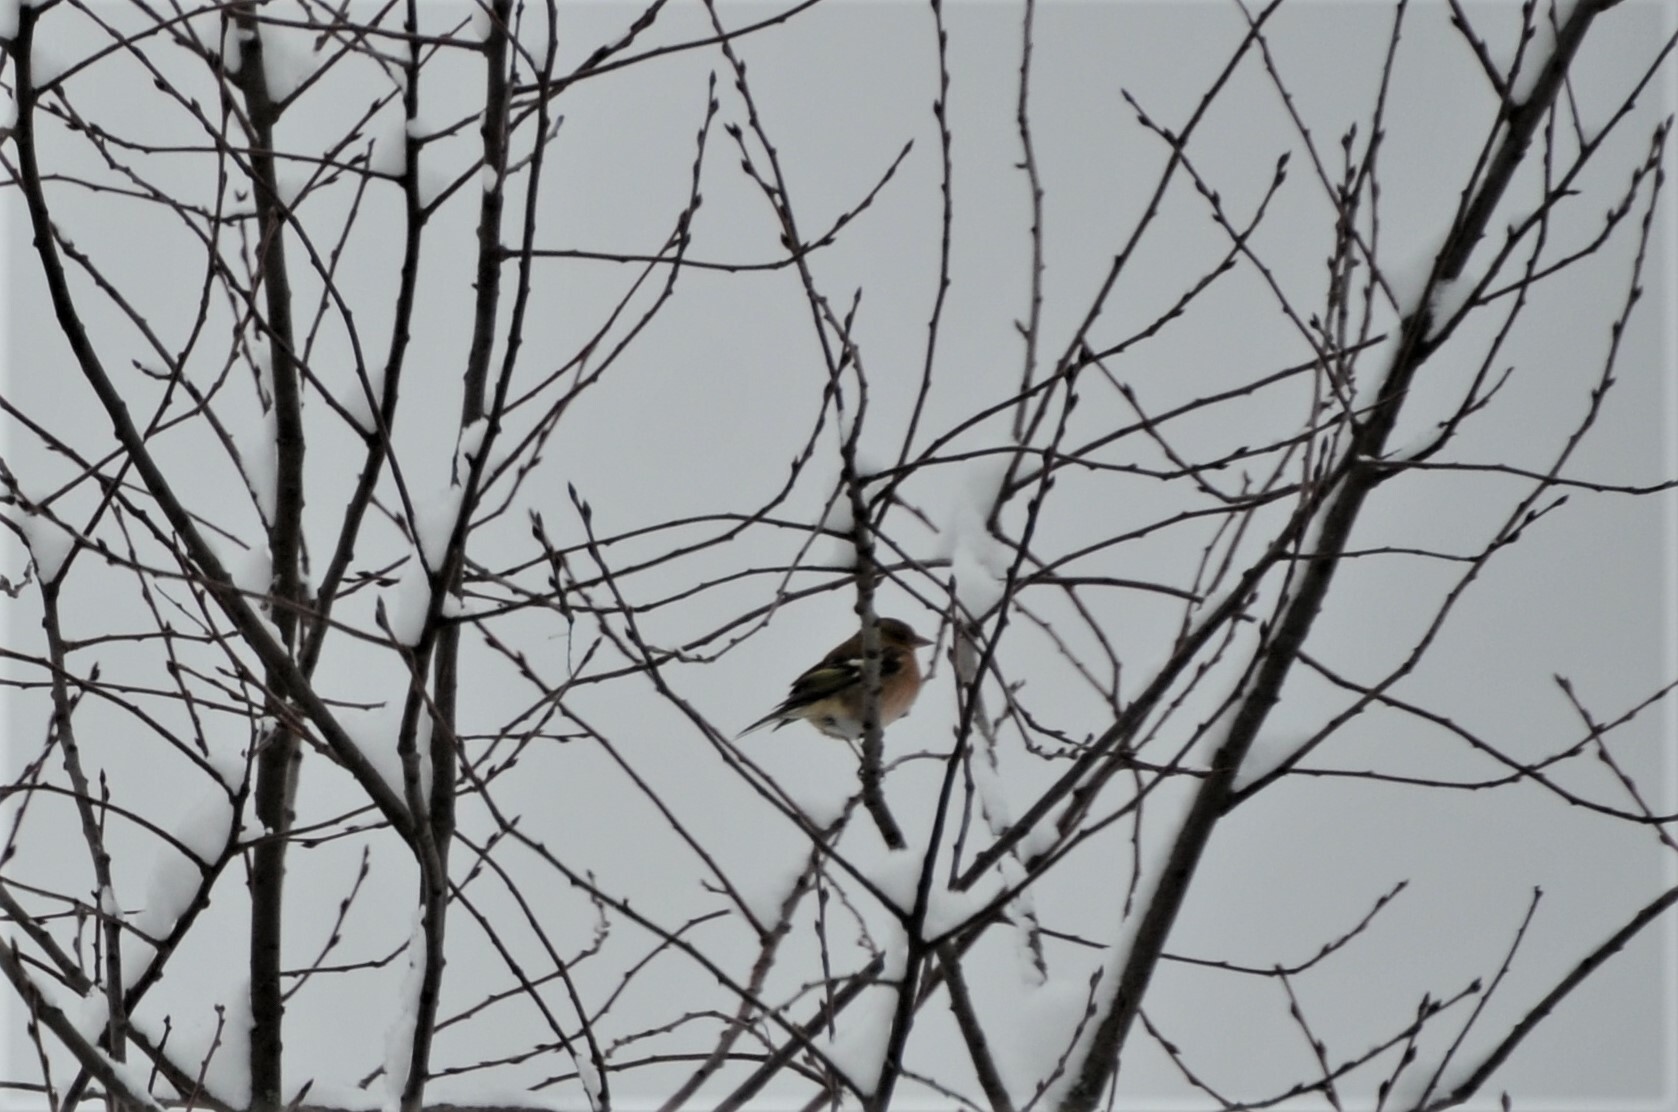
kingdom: Animalia
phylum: Chordata
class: Aves
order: Passeriformes
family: Fringillidae
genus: Fringilla
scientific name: Fringilla coelebs
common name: Common chaffinch
